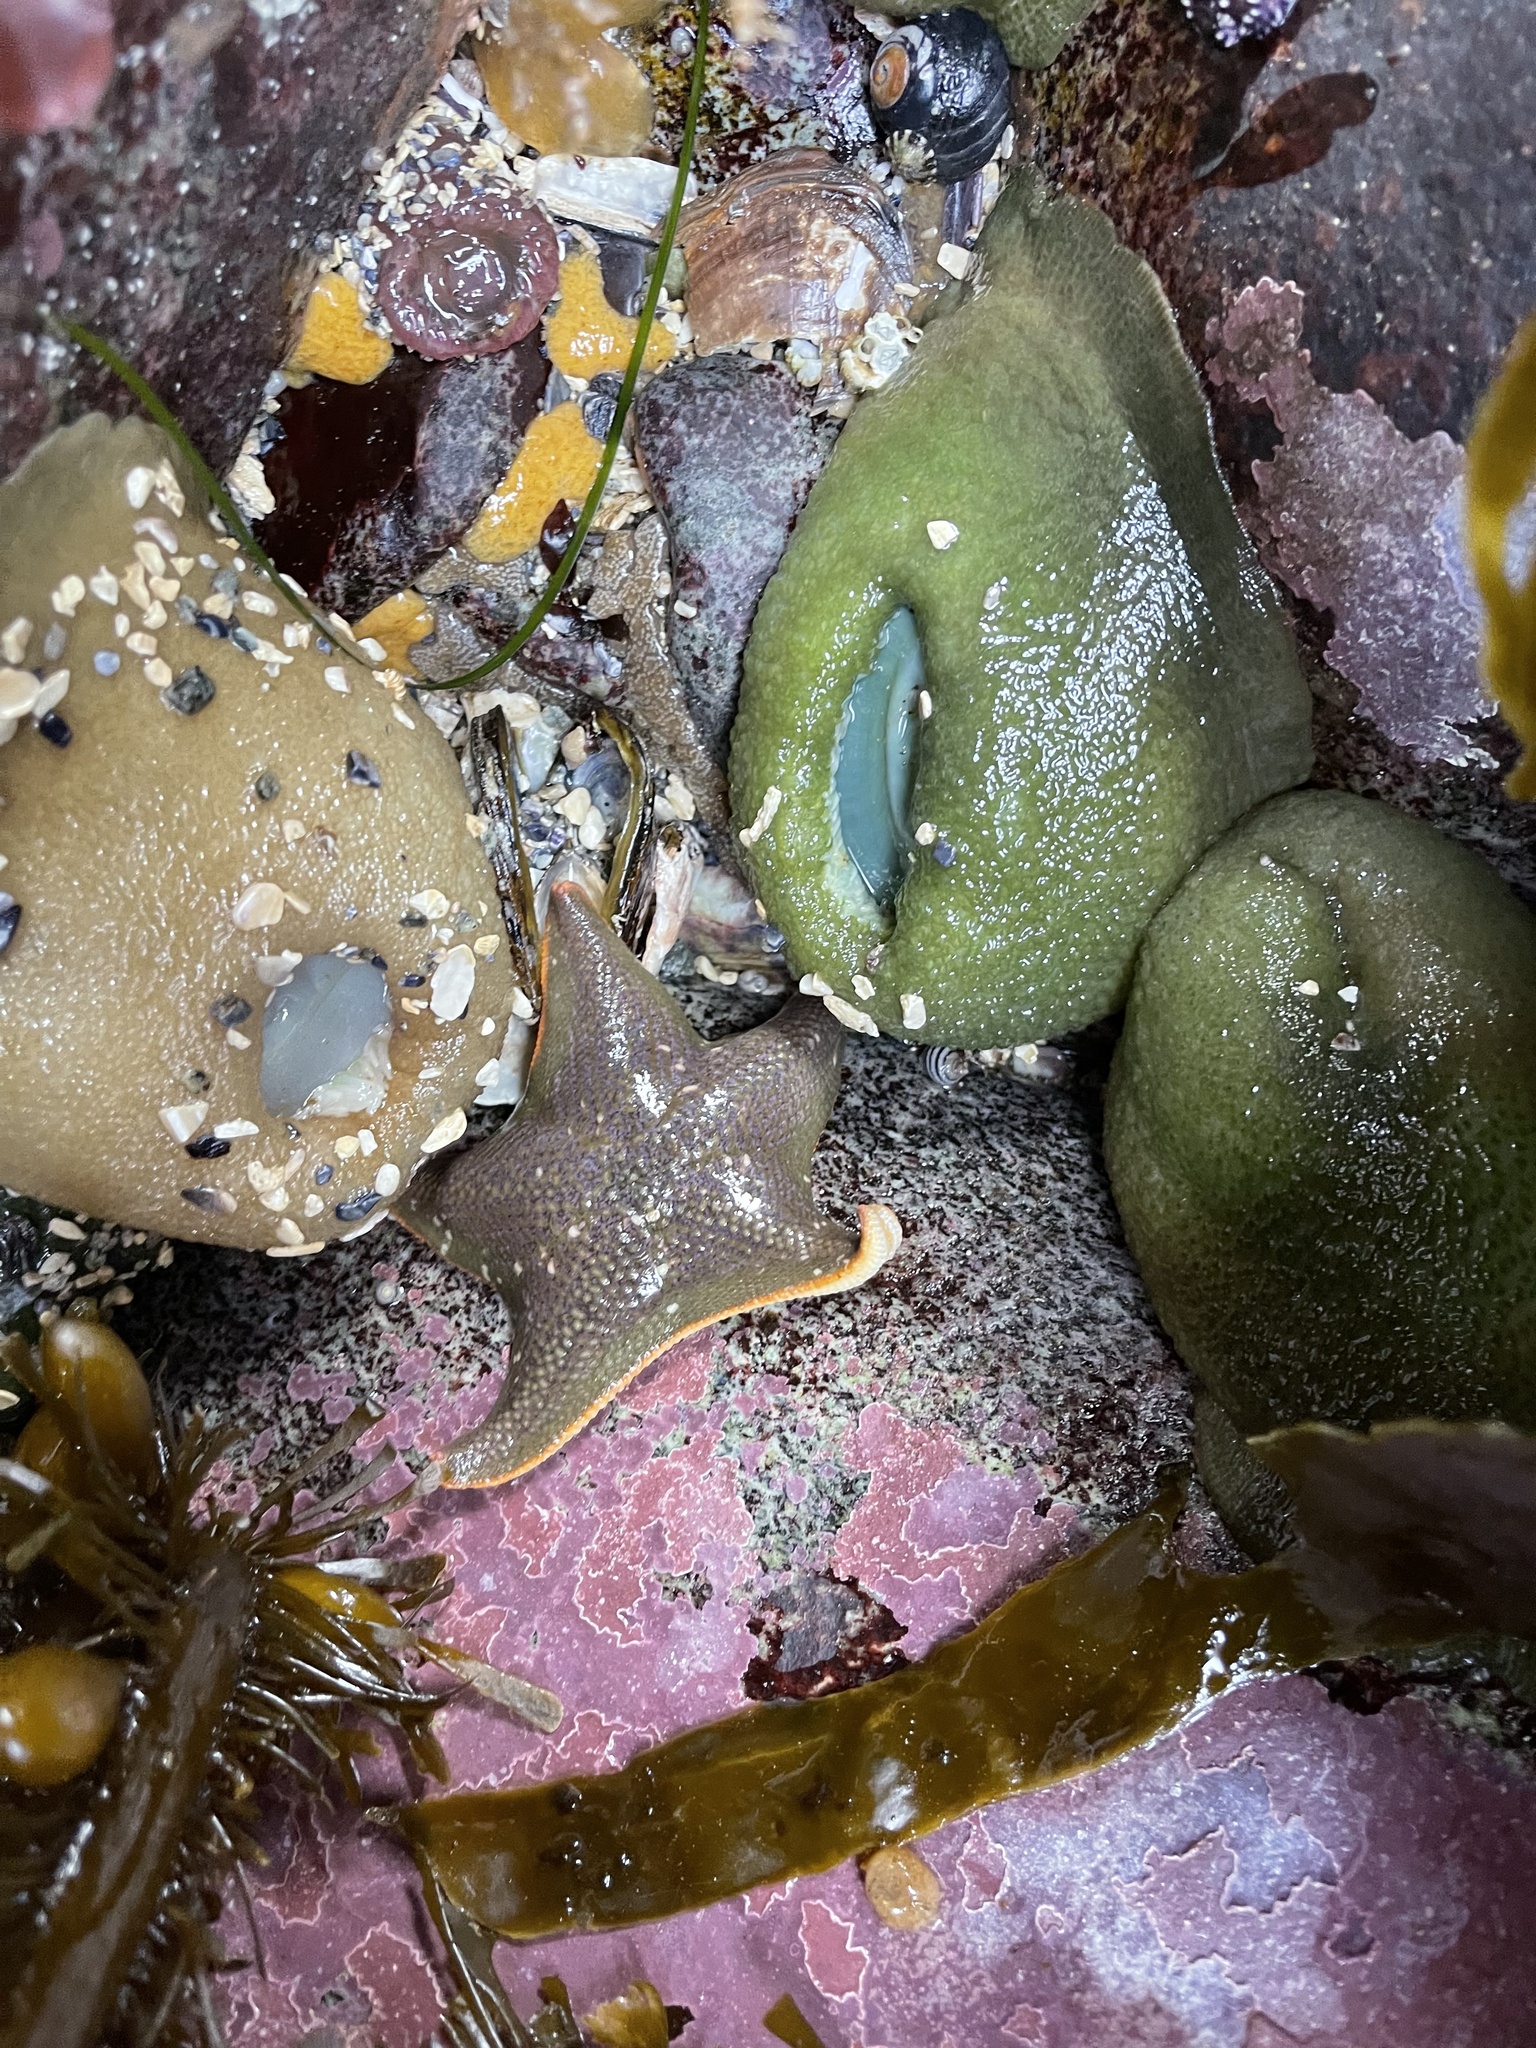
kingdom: Animalia
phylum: Echinodermata
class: Asteroidea
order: Valvatida
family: Asterinidae
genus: Patiria
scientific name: Patiria miniata
